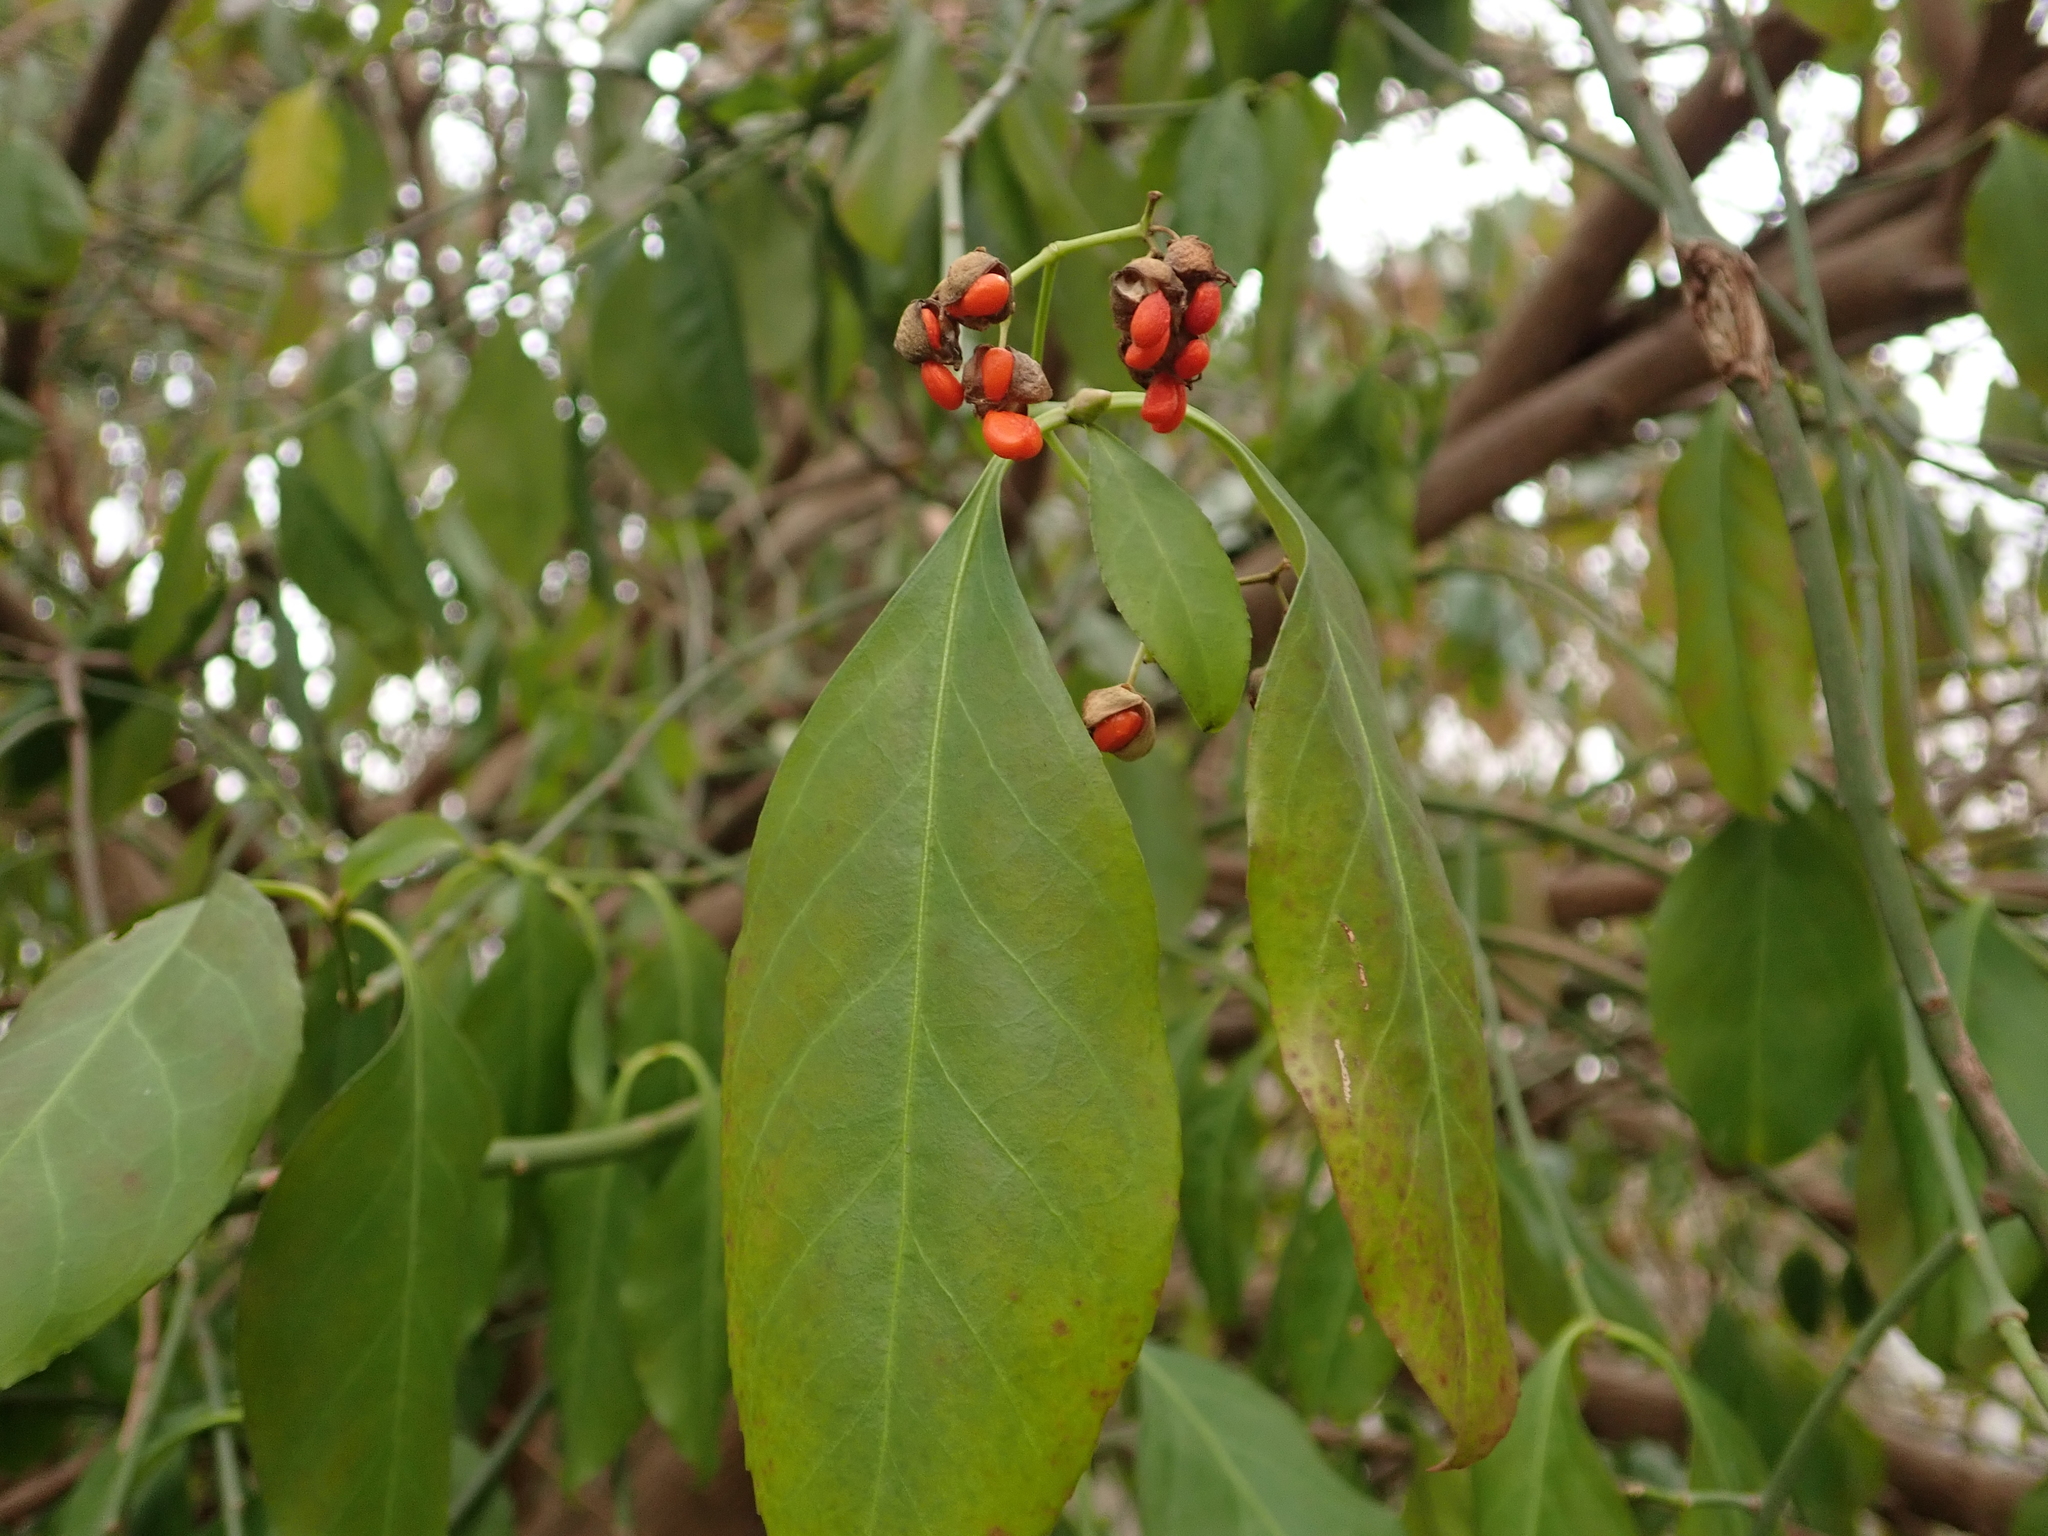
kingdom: Plantae
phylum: Tracheophyta
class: Magnoliopsida
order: Celastrales
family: Celastraceae
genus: Euonymus
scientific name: Euonymus europaeus
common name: Spindle
